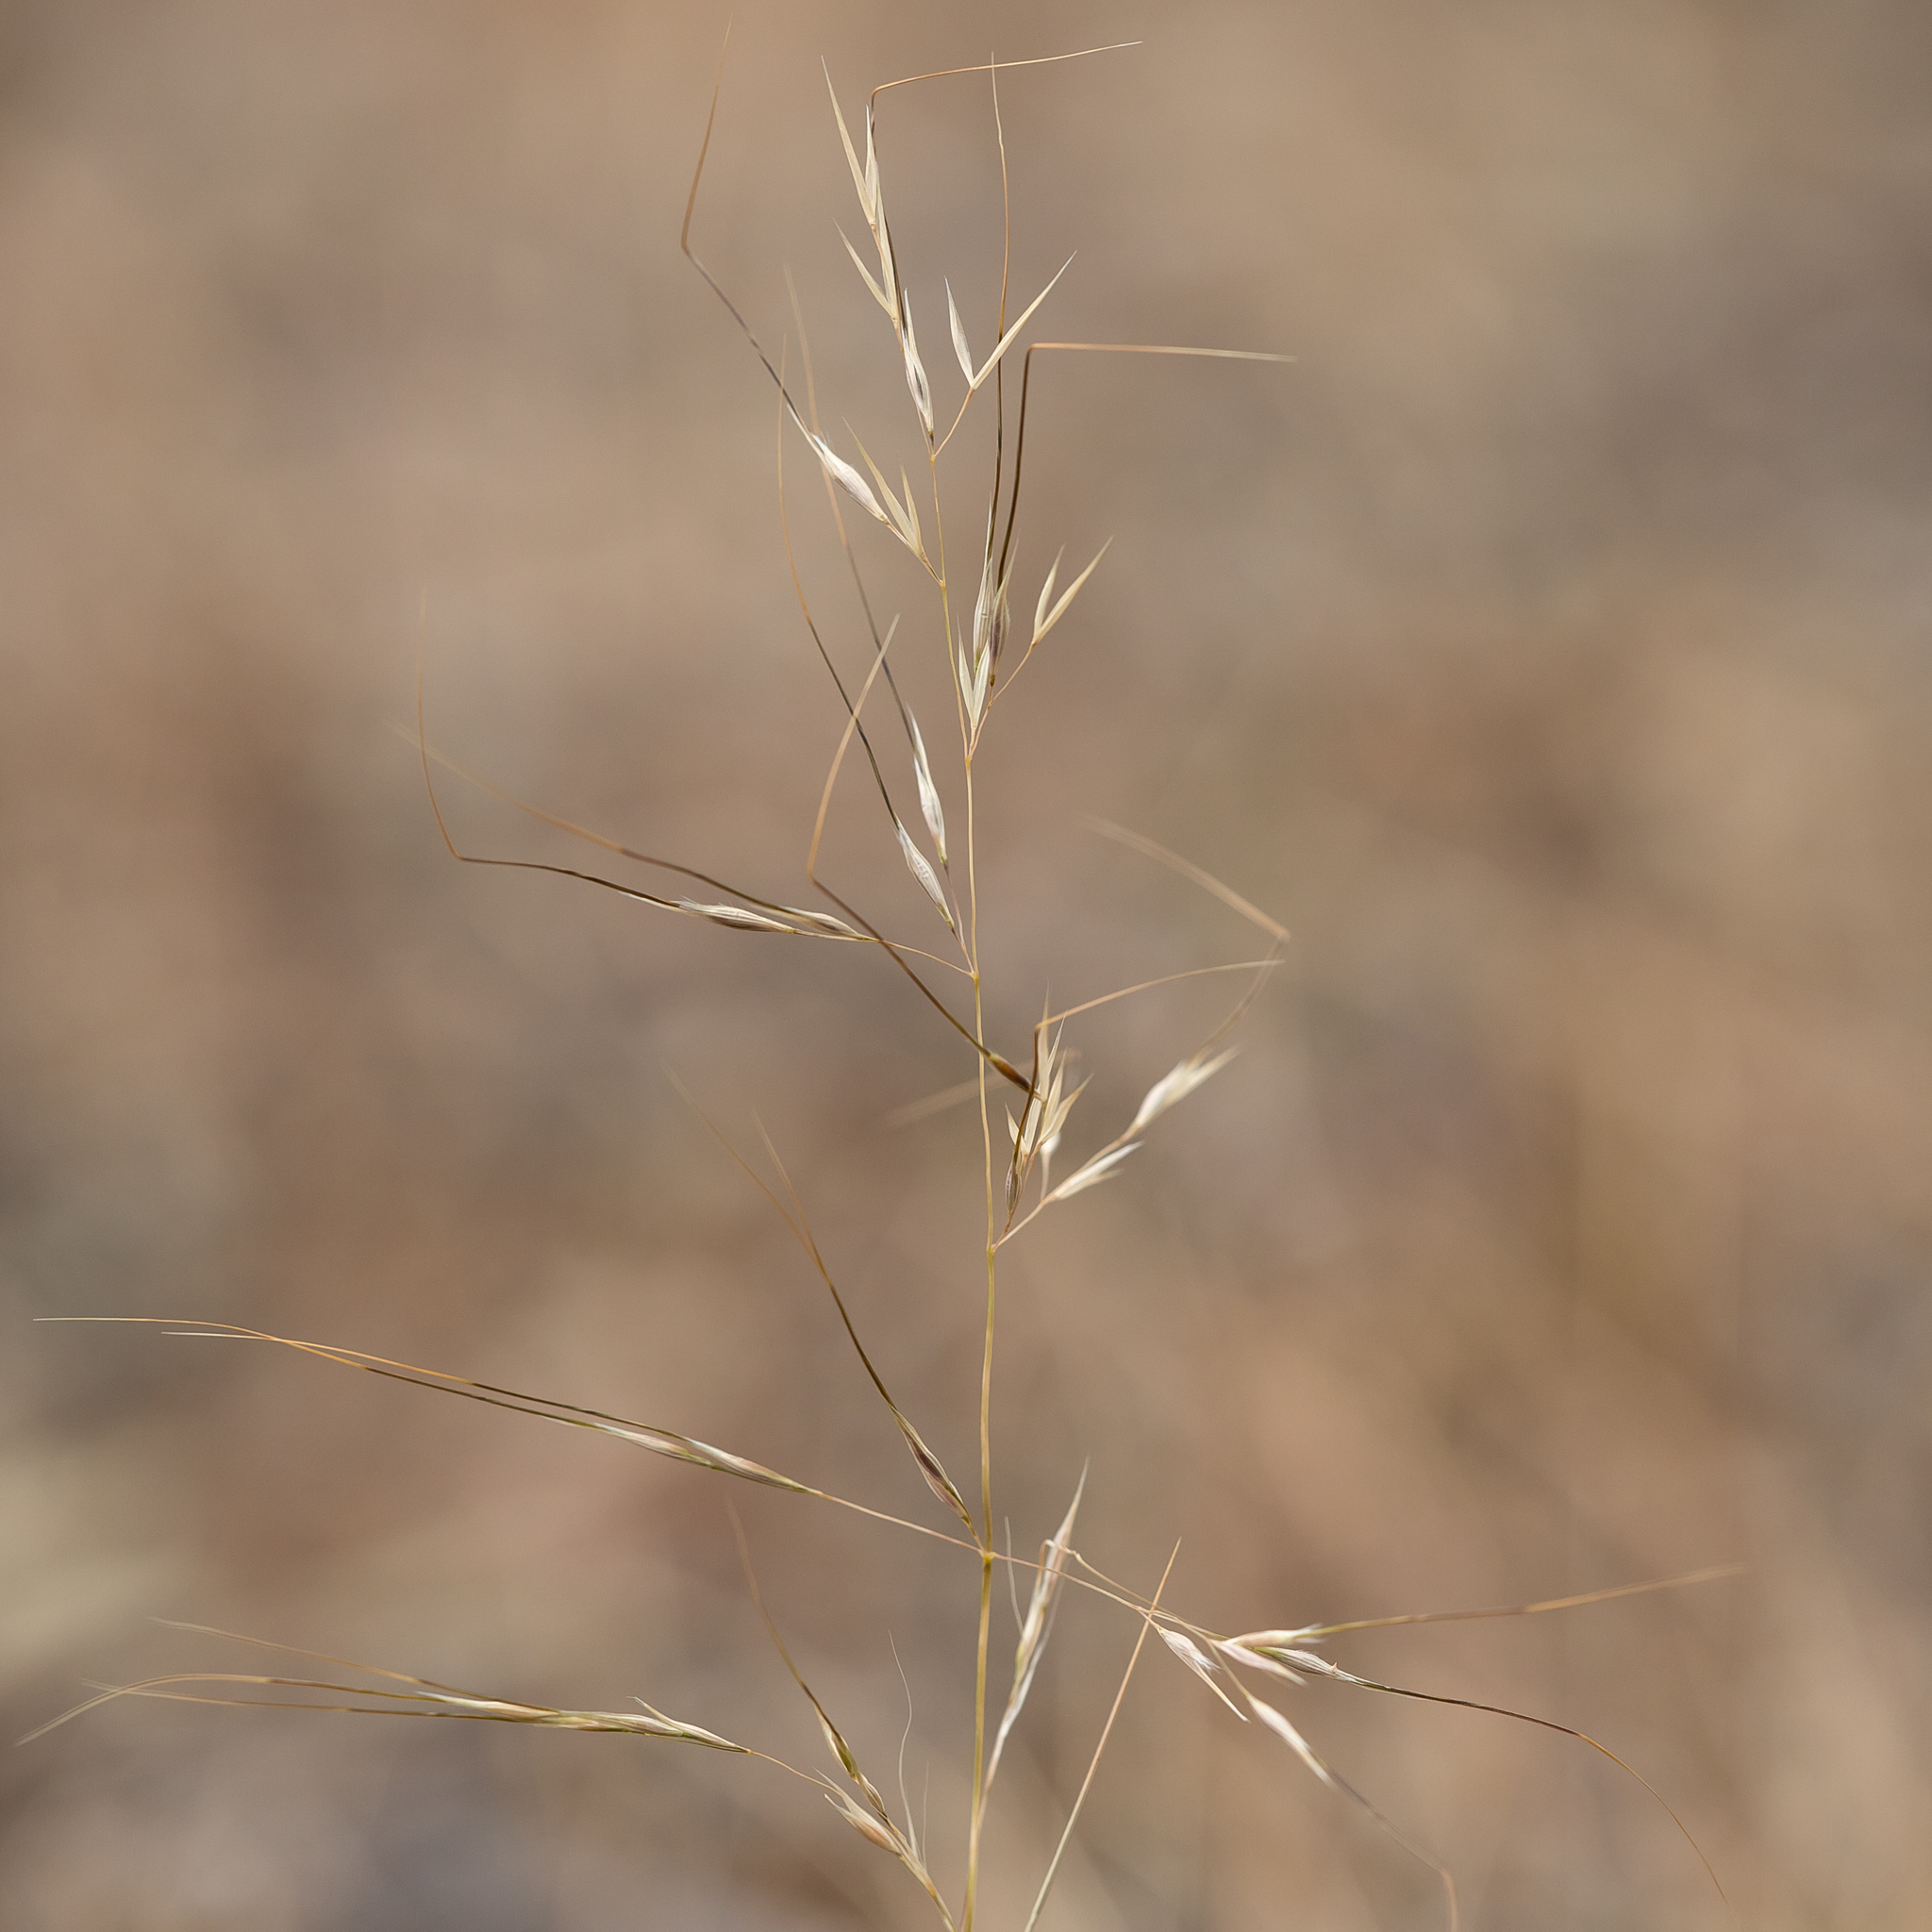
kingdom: Plantae
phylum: Tracheophyta
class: Liliopsida
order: Poales
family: Poaceae
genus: Austrostipa
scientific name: Austrostipa blackii
